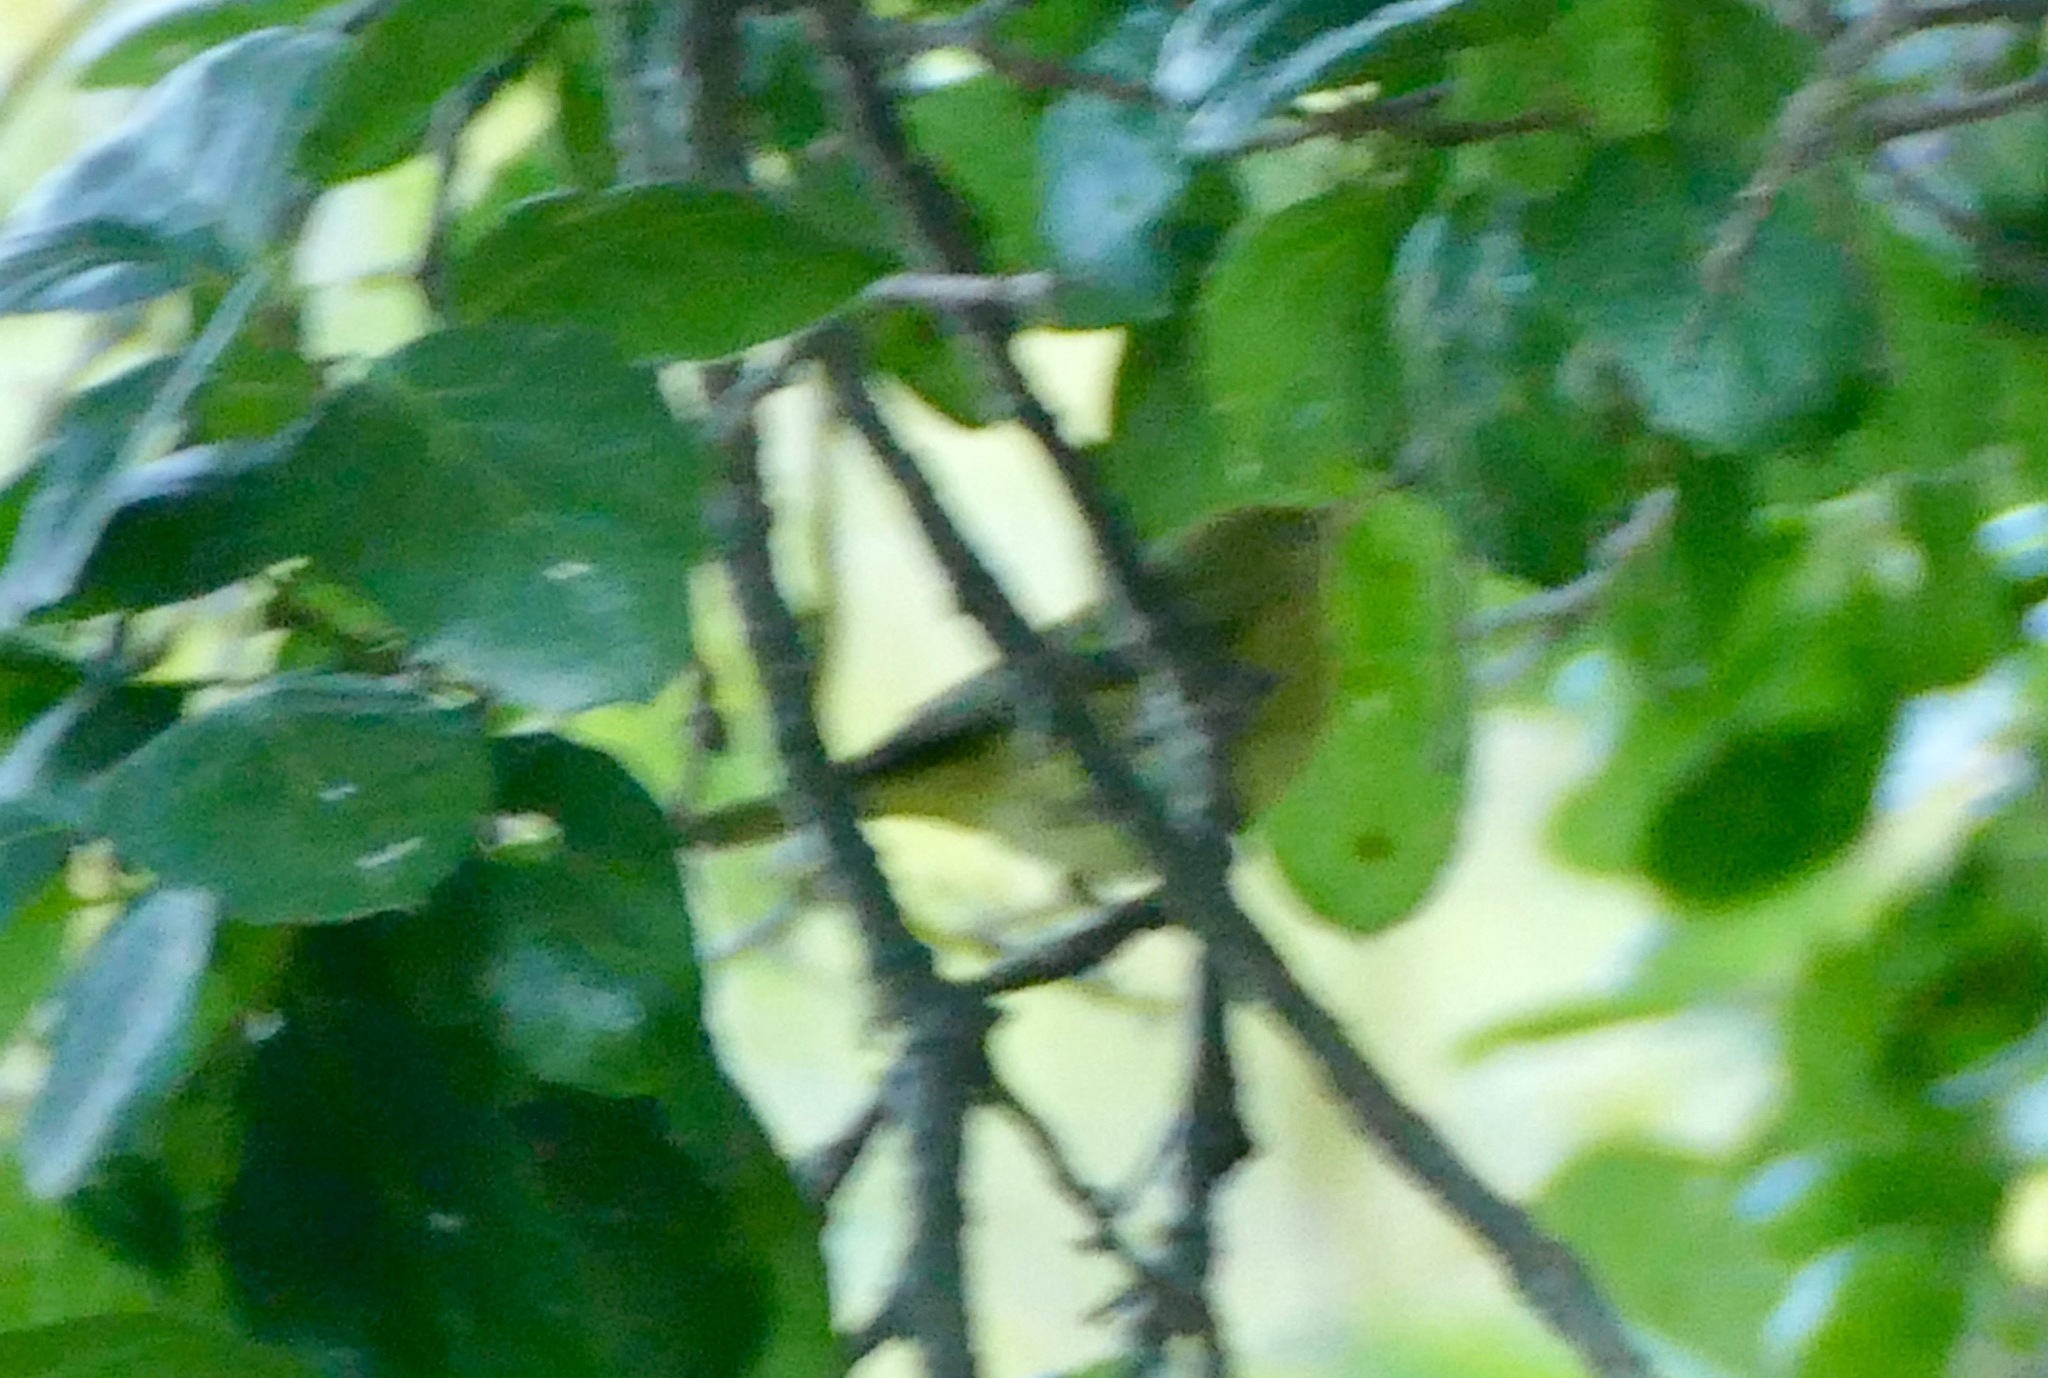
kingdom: Animalia
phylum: Chordata
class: Aves
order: Passeriformes
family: Parulidae
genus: Setophaga
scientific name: Setophaga petechia
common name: Yellow warbler
